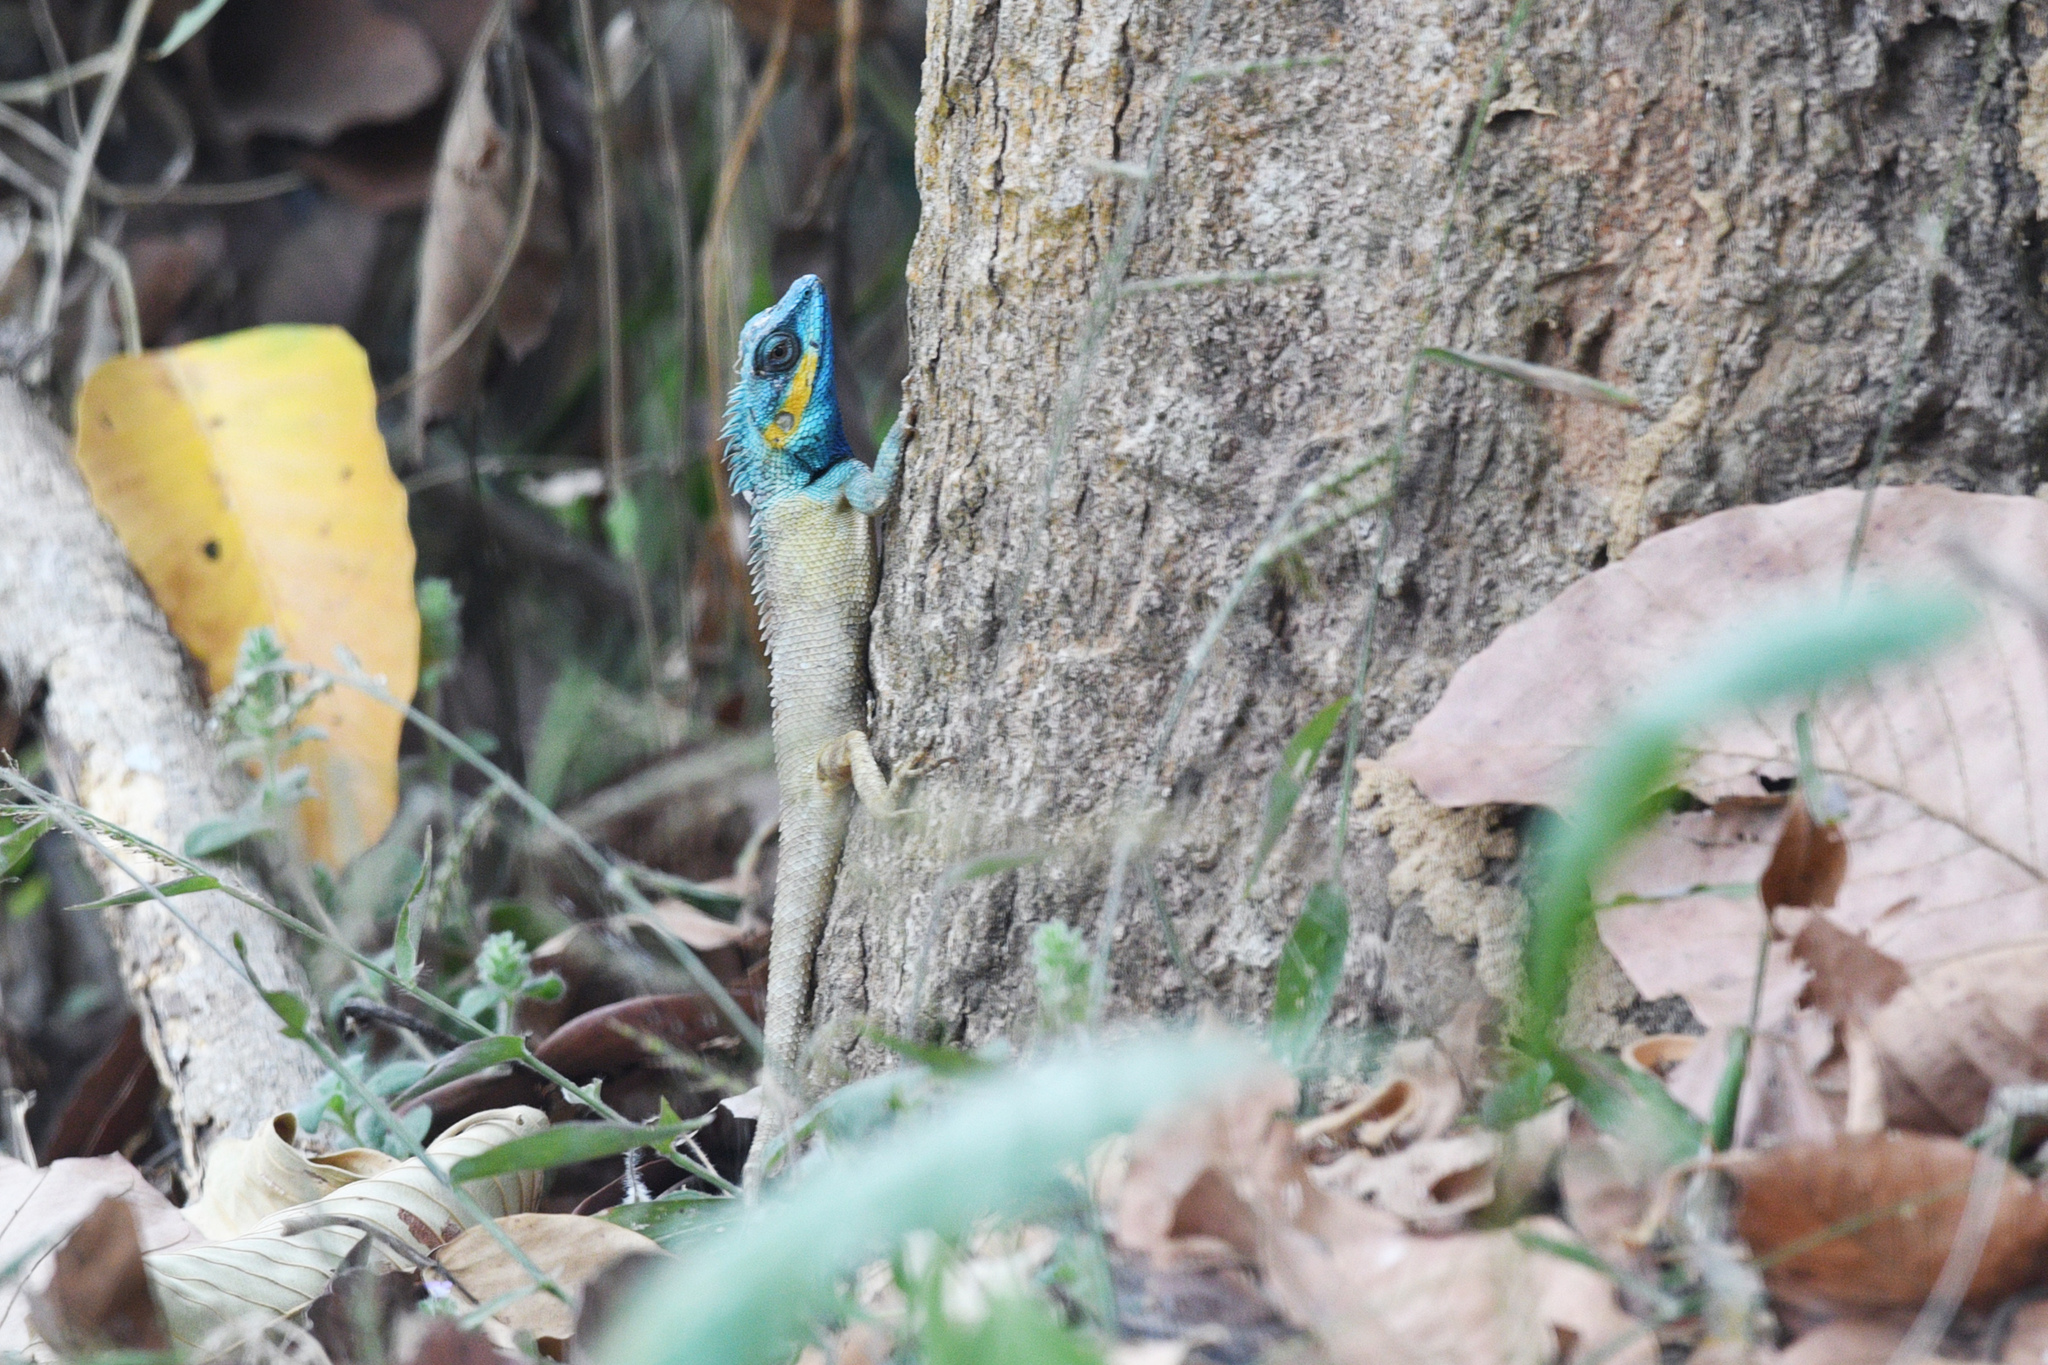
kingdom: Animalia
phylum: Chordata
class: Squamata
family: Agamidae
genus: Calotes
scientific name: Calotes bachae
